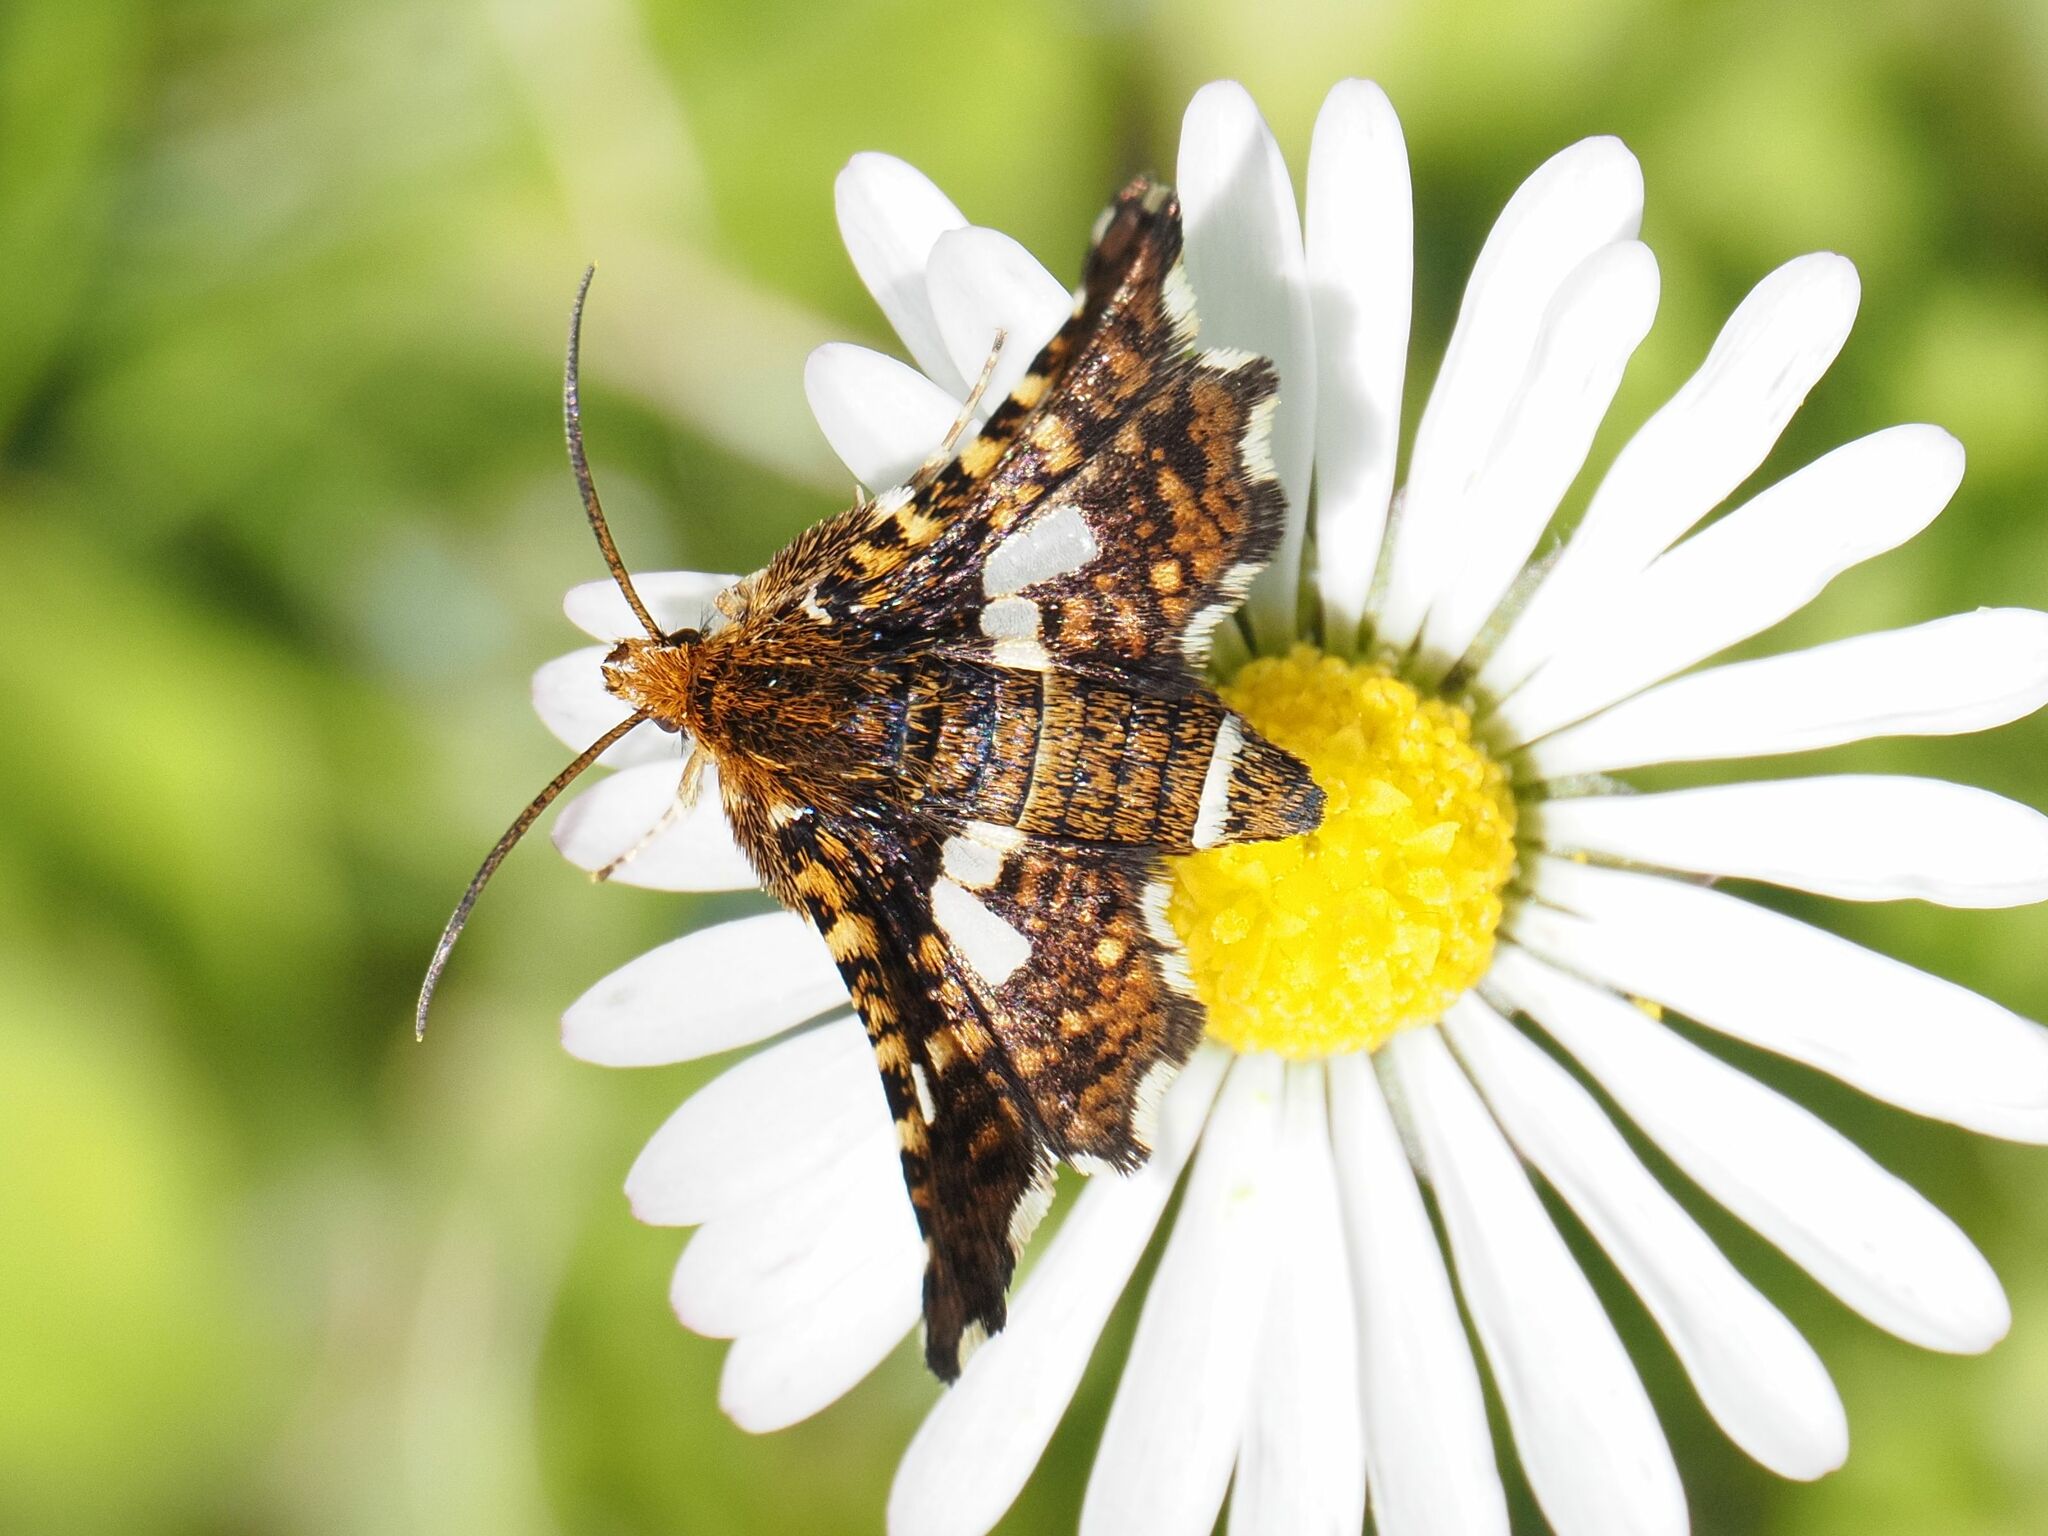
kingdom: Animalia
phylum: Arthropoda
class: Insecta
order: Lepidoptera
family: Thyrididae
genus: Thyris
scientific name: Thyris fenestrella
